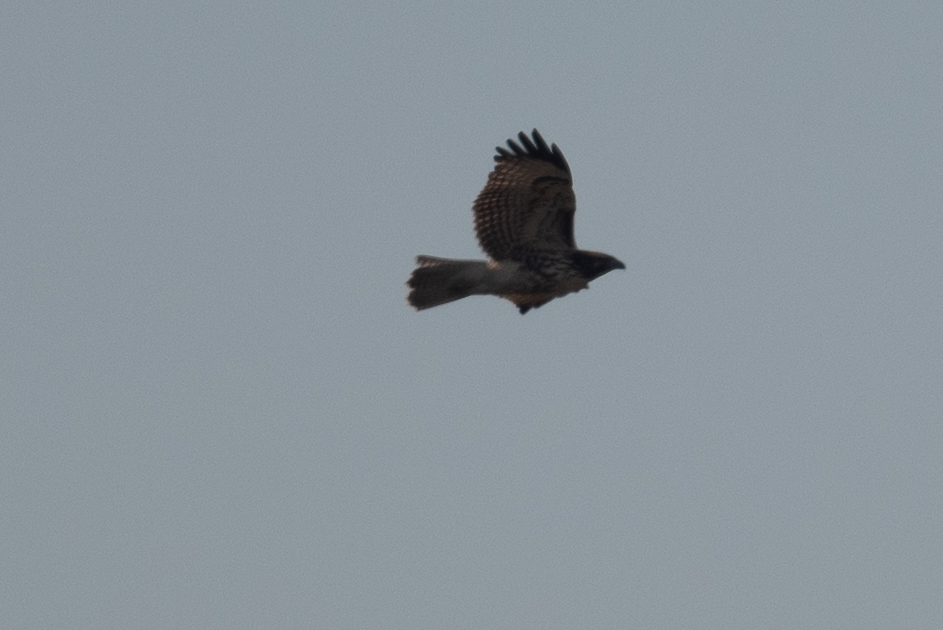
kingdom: Animalia
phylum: Chordata
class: Aves
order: Accipitriformes
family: Accipitridae
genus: Buteo
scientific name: Buteo jamaicensis
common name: Red-tailed hawk
